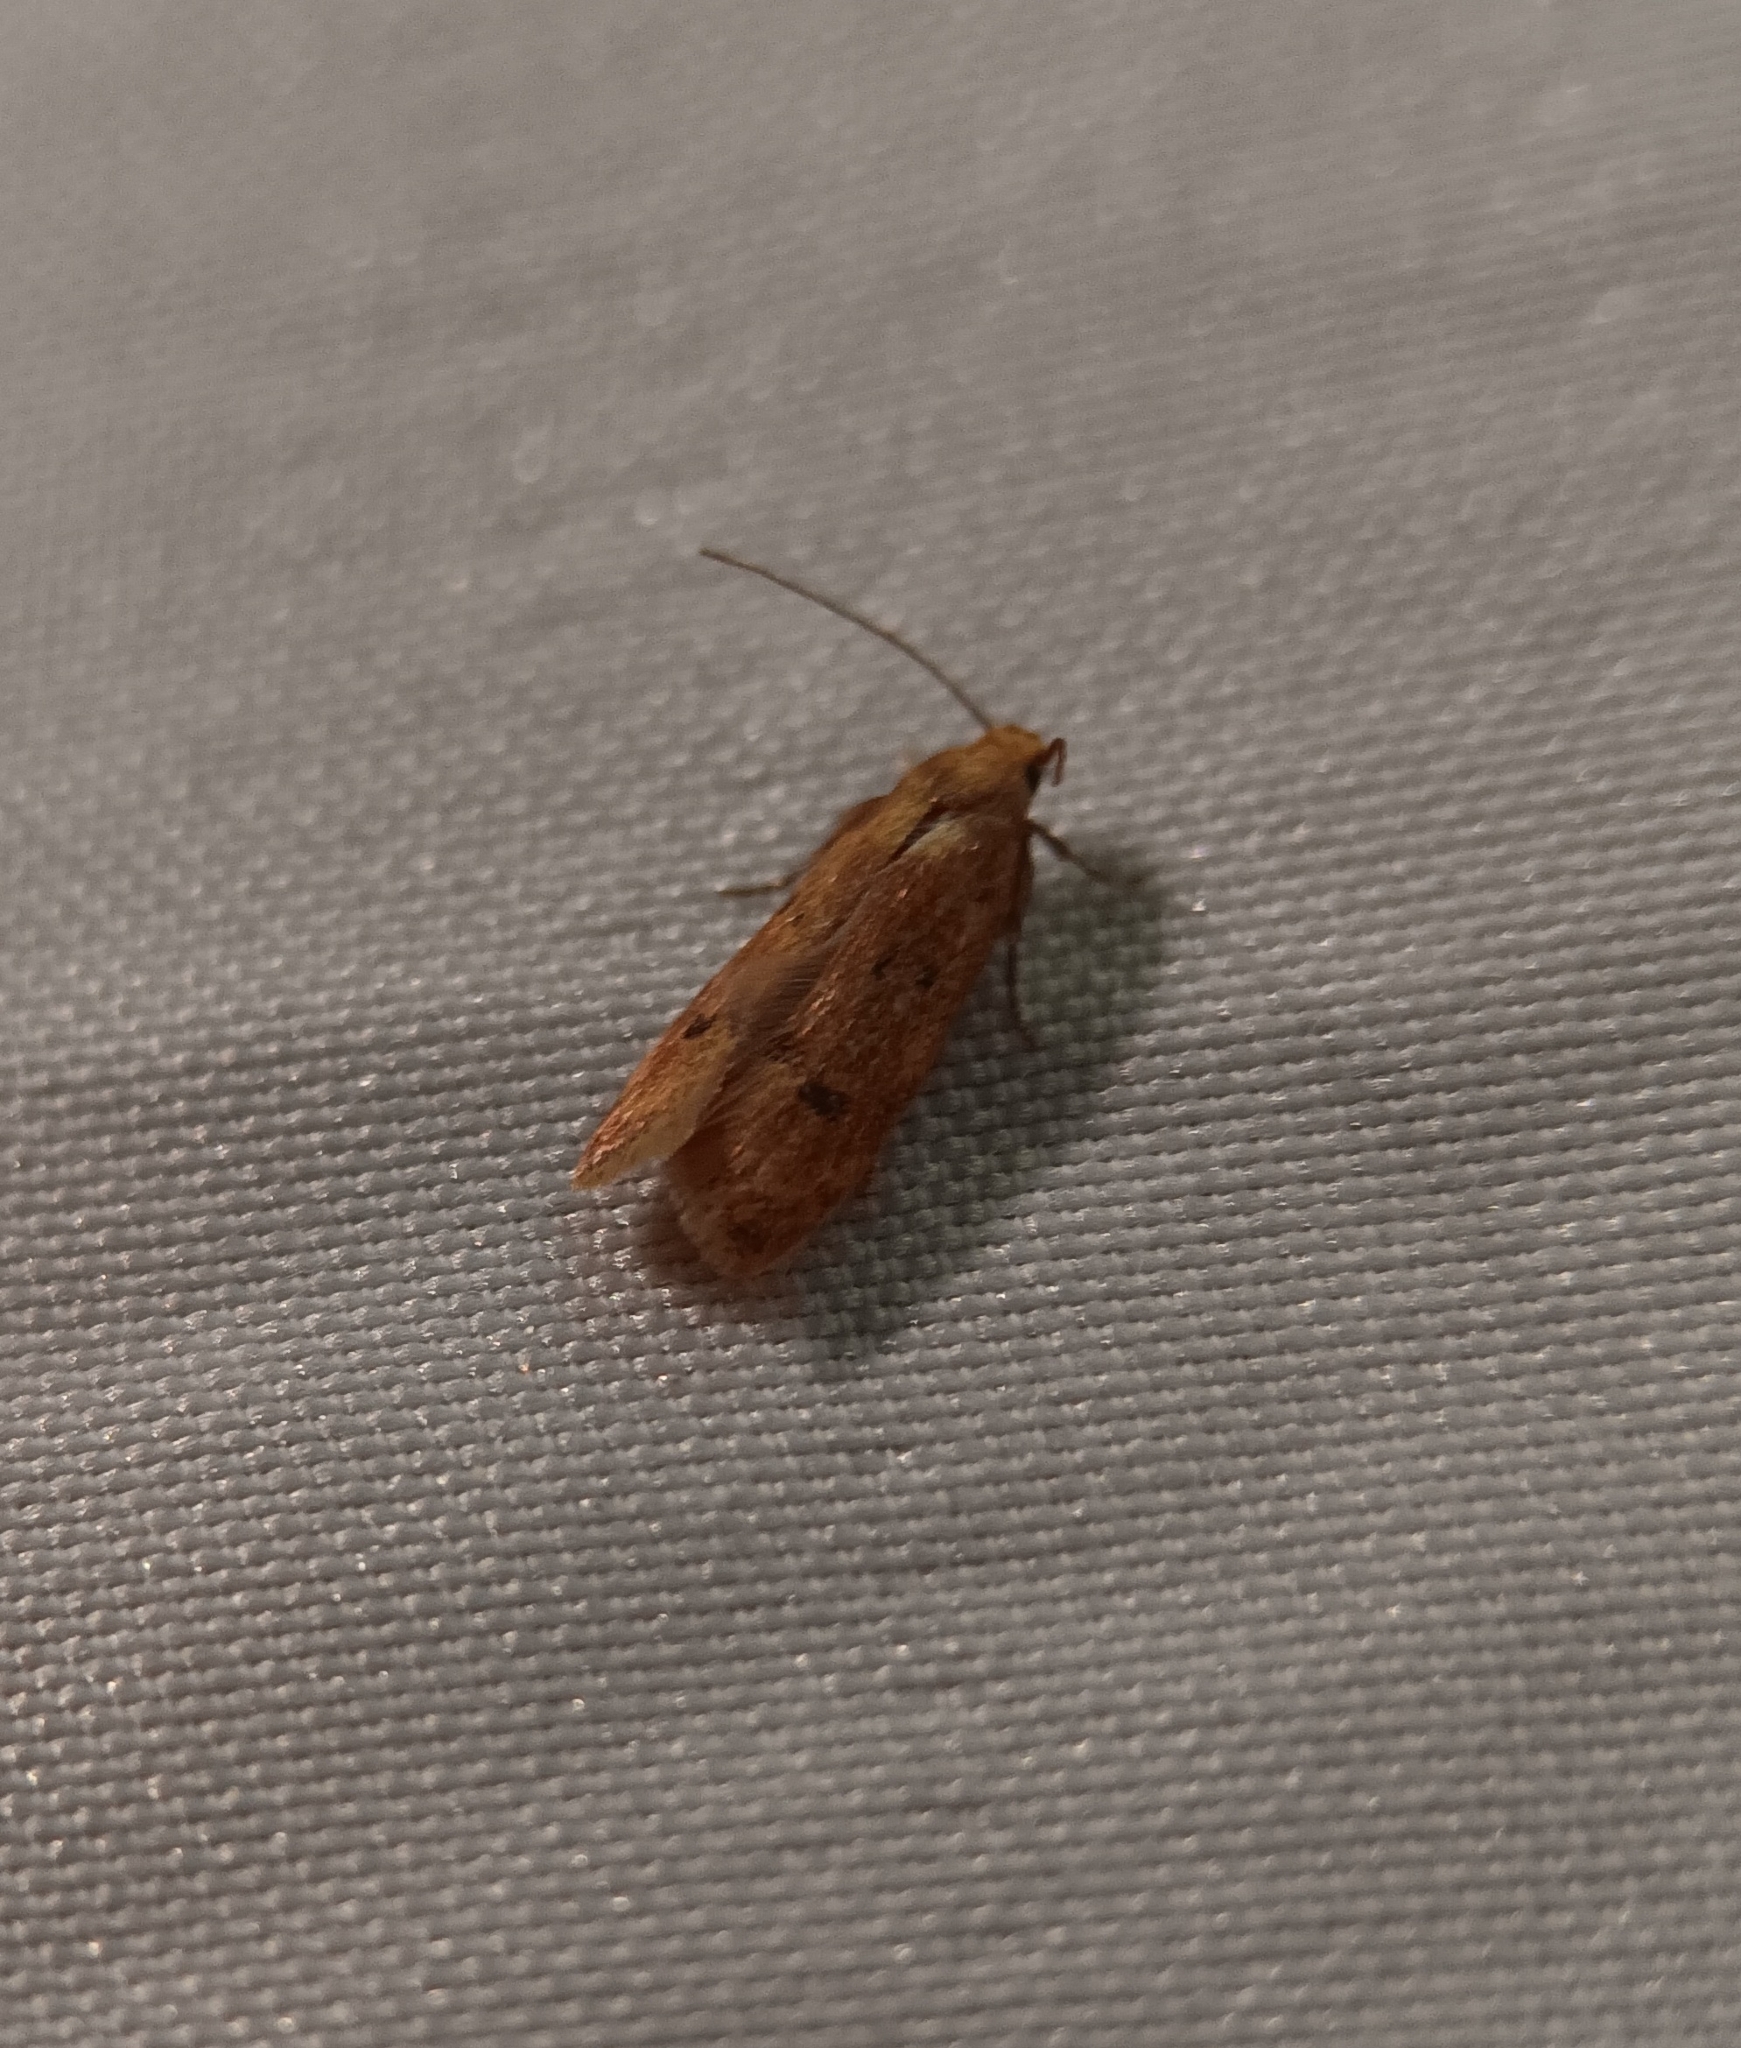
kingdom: Animalia
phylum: Arthropoda
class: Insecta
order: Lepidoptera
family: Autostichidae
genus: Gerdana
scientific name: Gerdana caritella
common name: Gerdana moth
